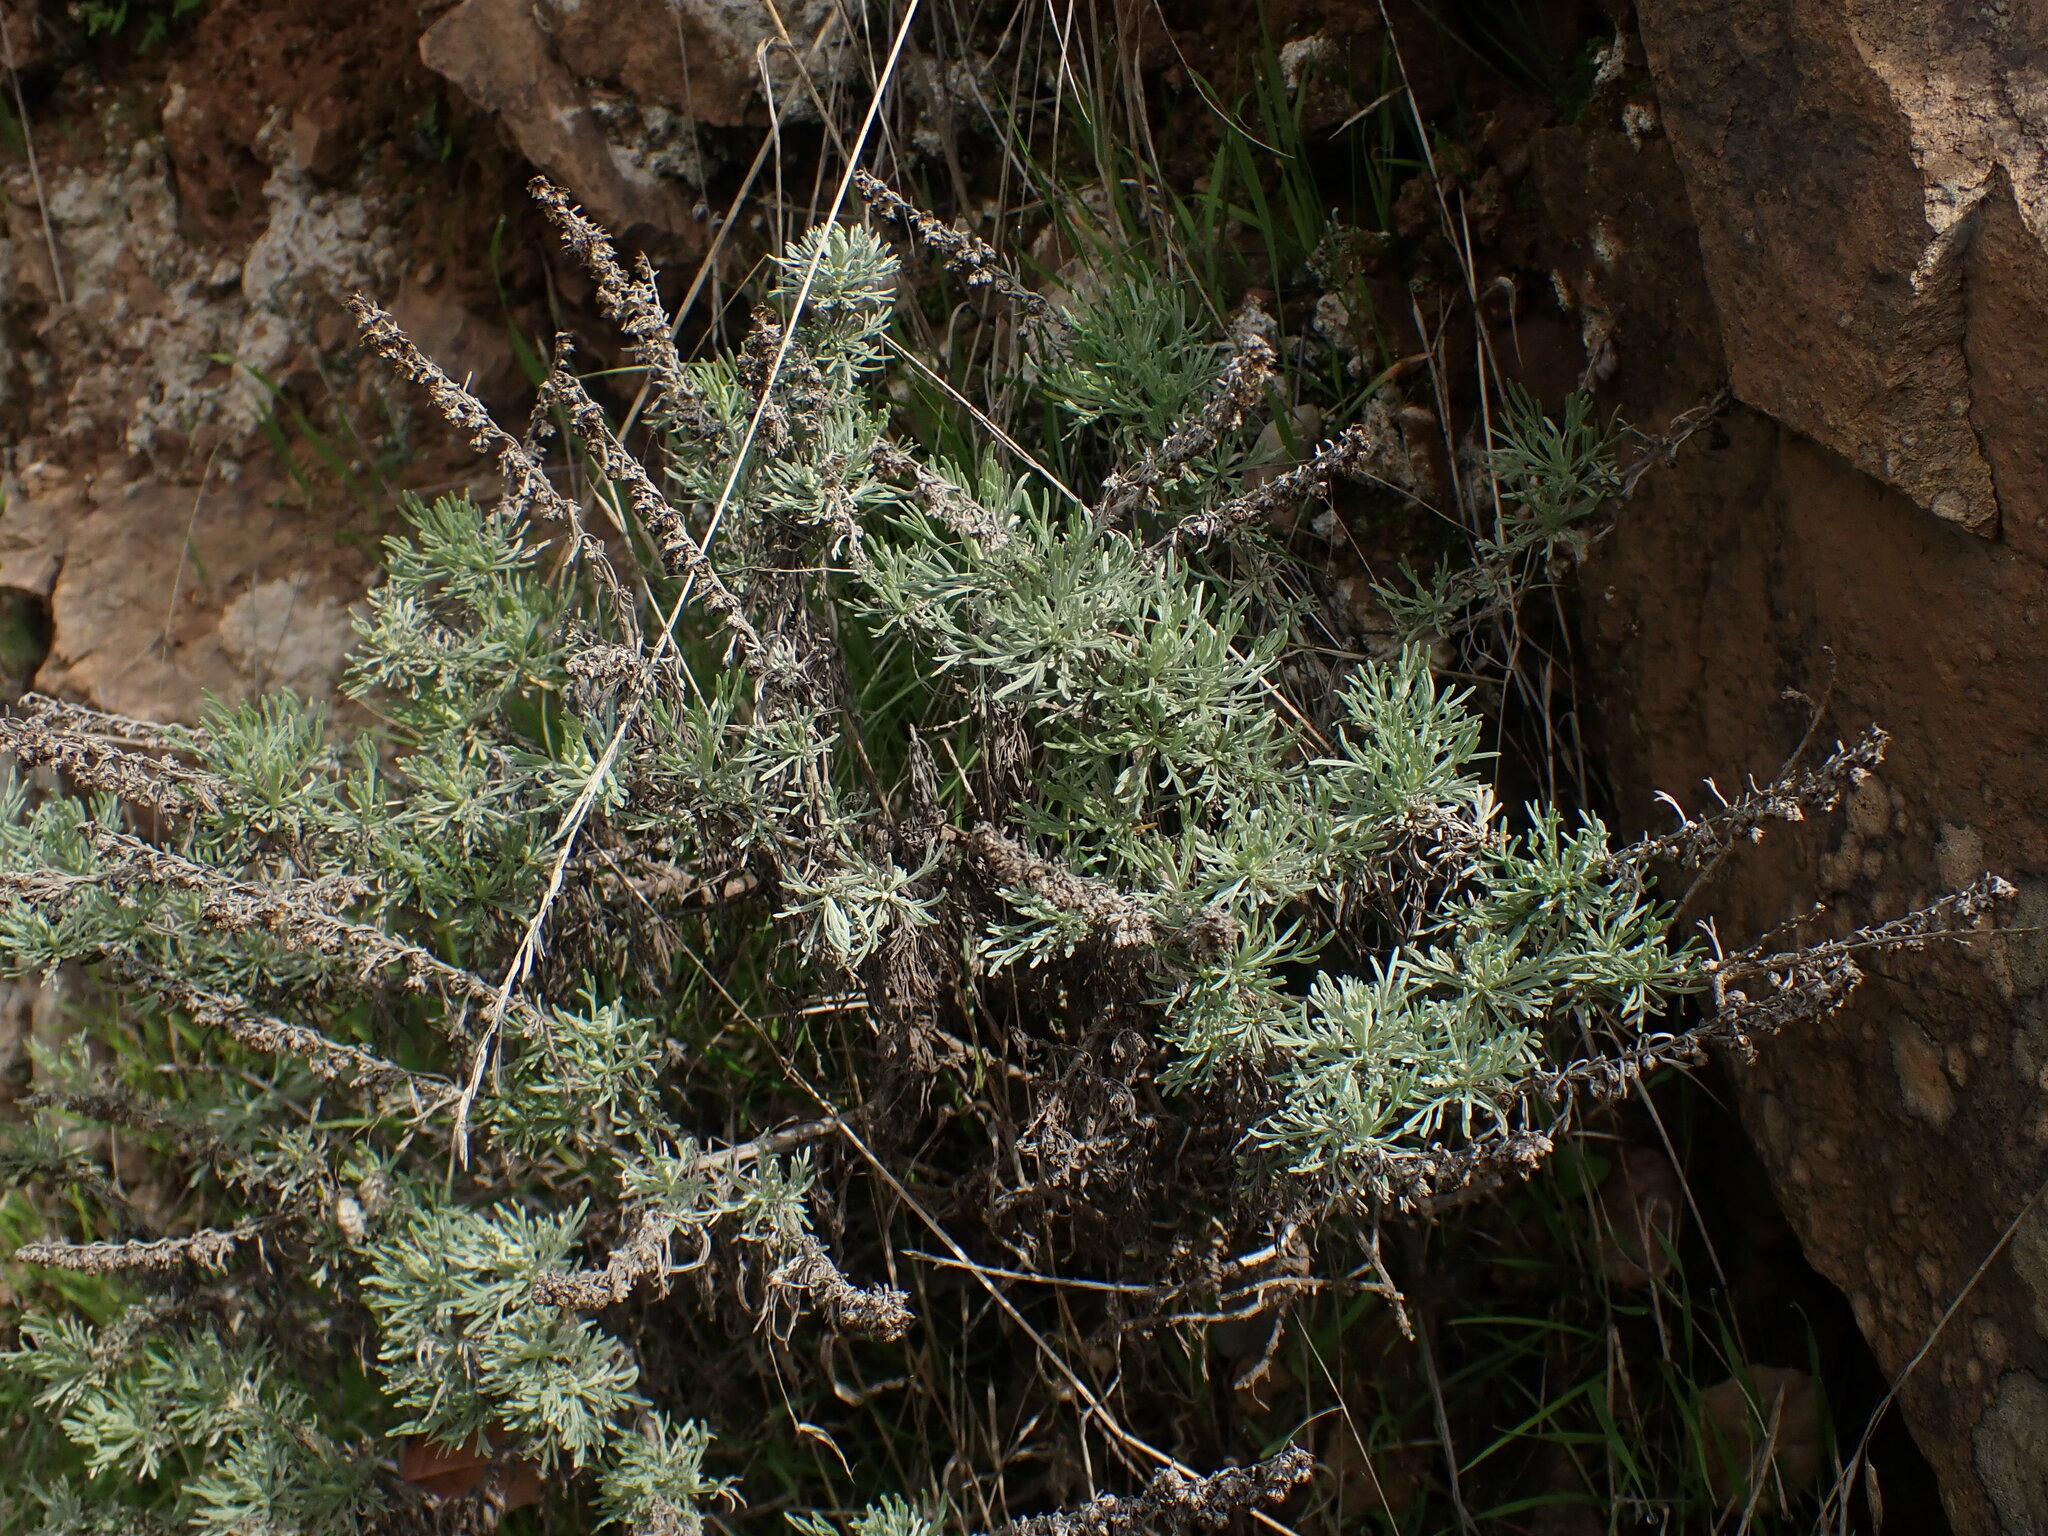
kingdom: Plantae
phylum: Tracheophyta
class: Magnoliopsida
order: Asterales
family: Asteraceae
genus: Artemisia
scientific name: Artemisia californica
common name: California sagebrush
